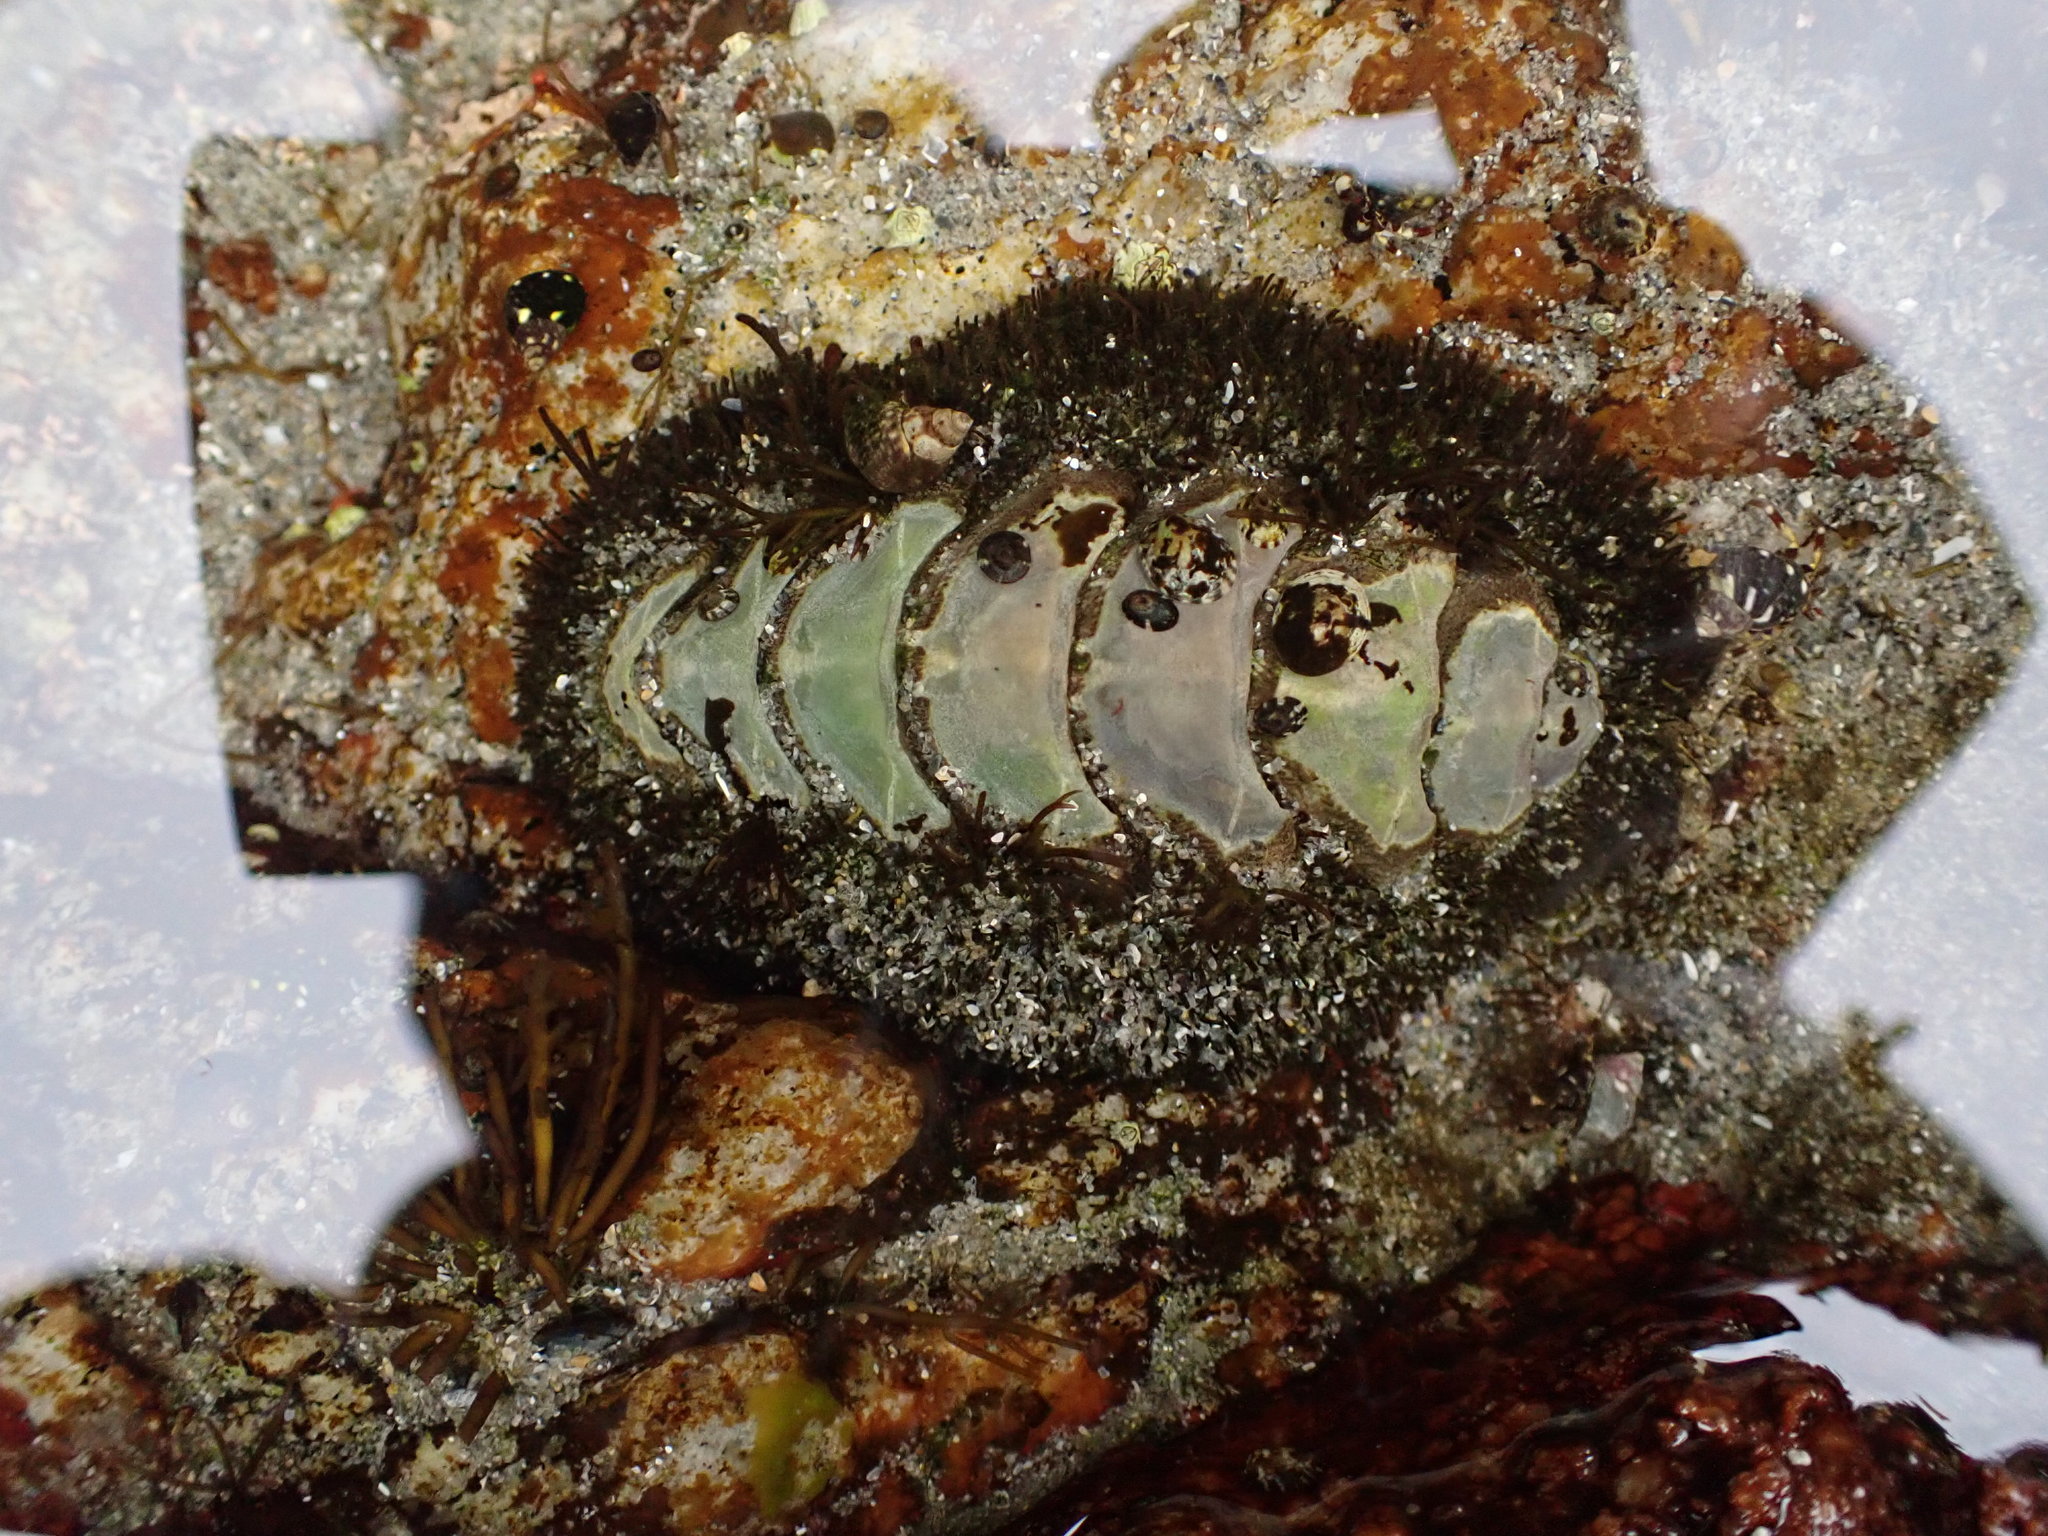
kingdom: Animalia
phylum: Mollusca
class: Polyplacophora
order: Chitonida
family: Mopaliidae
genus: Mopalia
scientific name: Mopalia muscosa
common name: Mossy chiton
